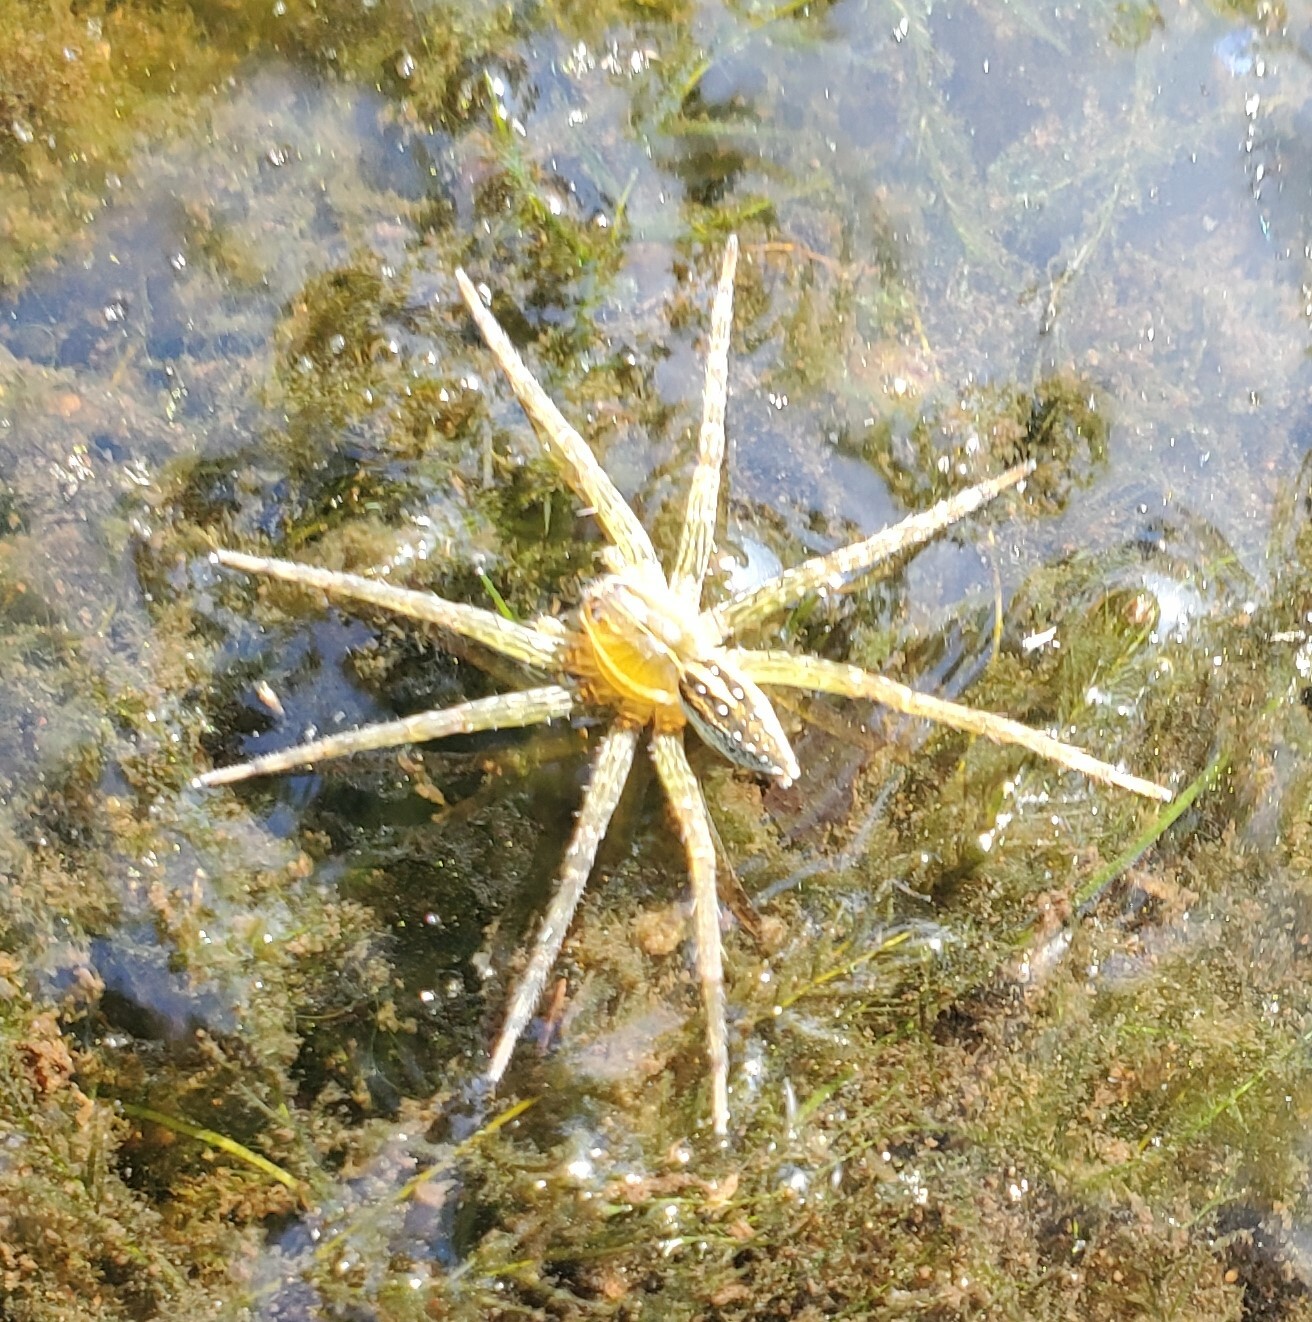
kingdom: Animalia
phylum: Arthropoda
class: Arachnida
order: Araneae
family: Pisauridae
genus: Dolomedes
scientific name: Dolomedes triton
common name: Six-spotted fishing spider
